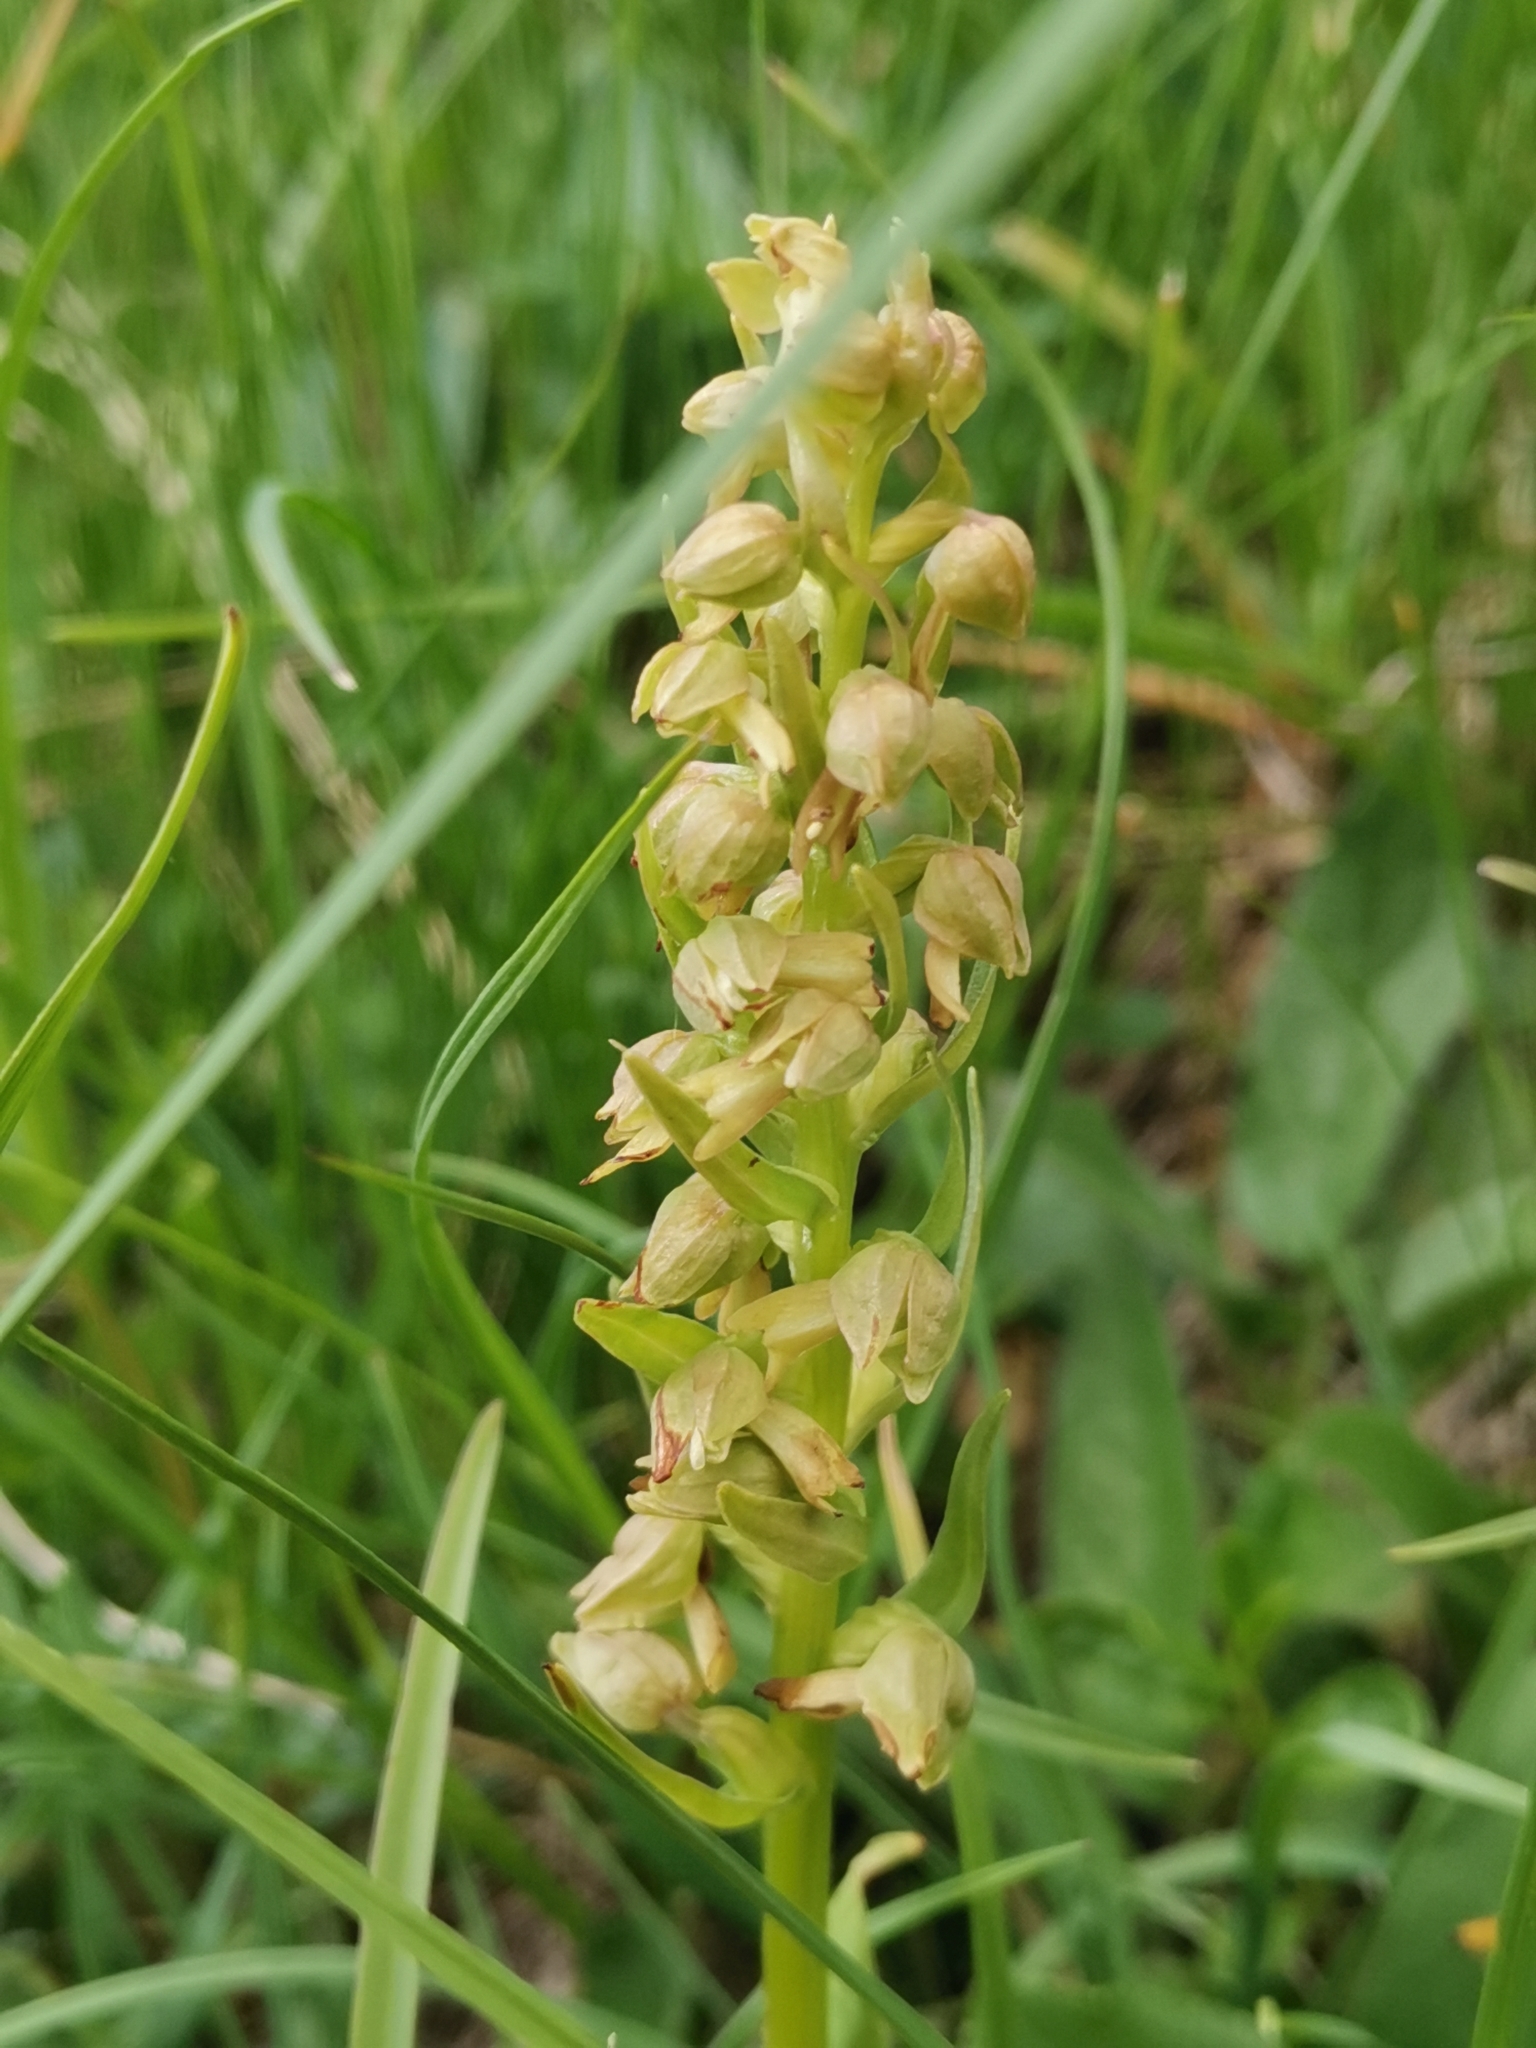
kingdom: Plantae
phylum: Tracheophyta
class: Liliopsida
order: Asparagales
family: Orchidaceae
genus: Dactylorhiza
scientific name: Dactylorhiza viridis
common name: Longbract frog orchid
